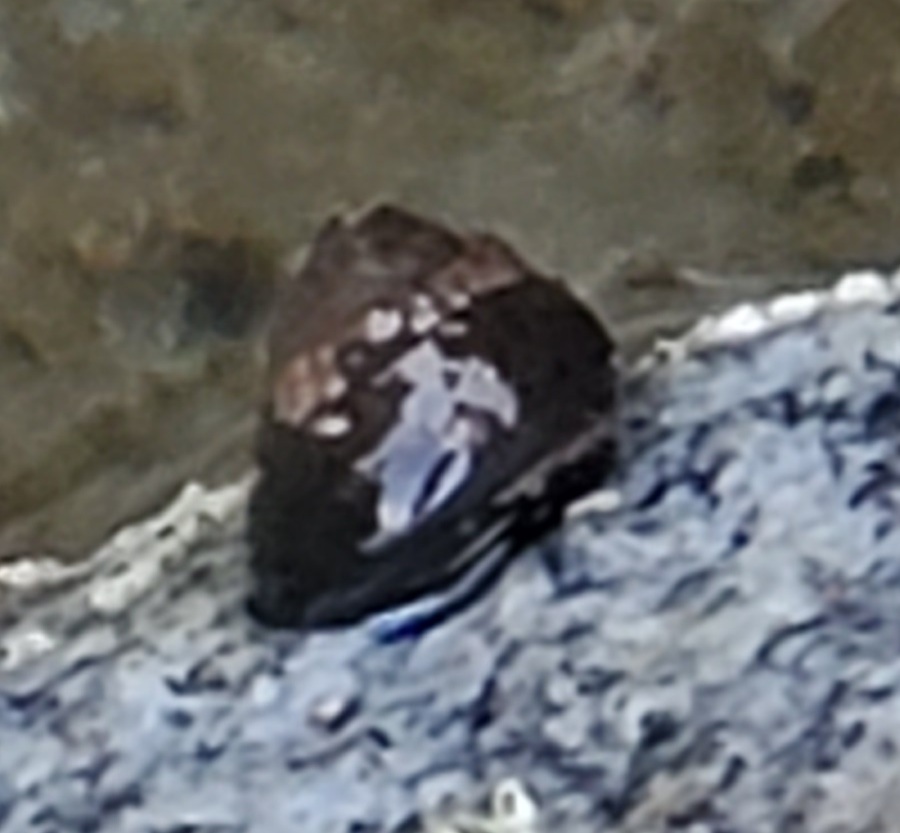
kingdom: Animalia
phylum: Mollusca
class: Gastropoda
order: Trochida
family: Tegulidae
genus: Tegula
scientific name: Tegula funebralis
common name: Black tegula
